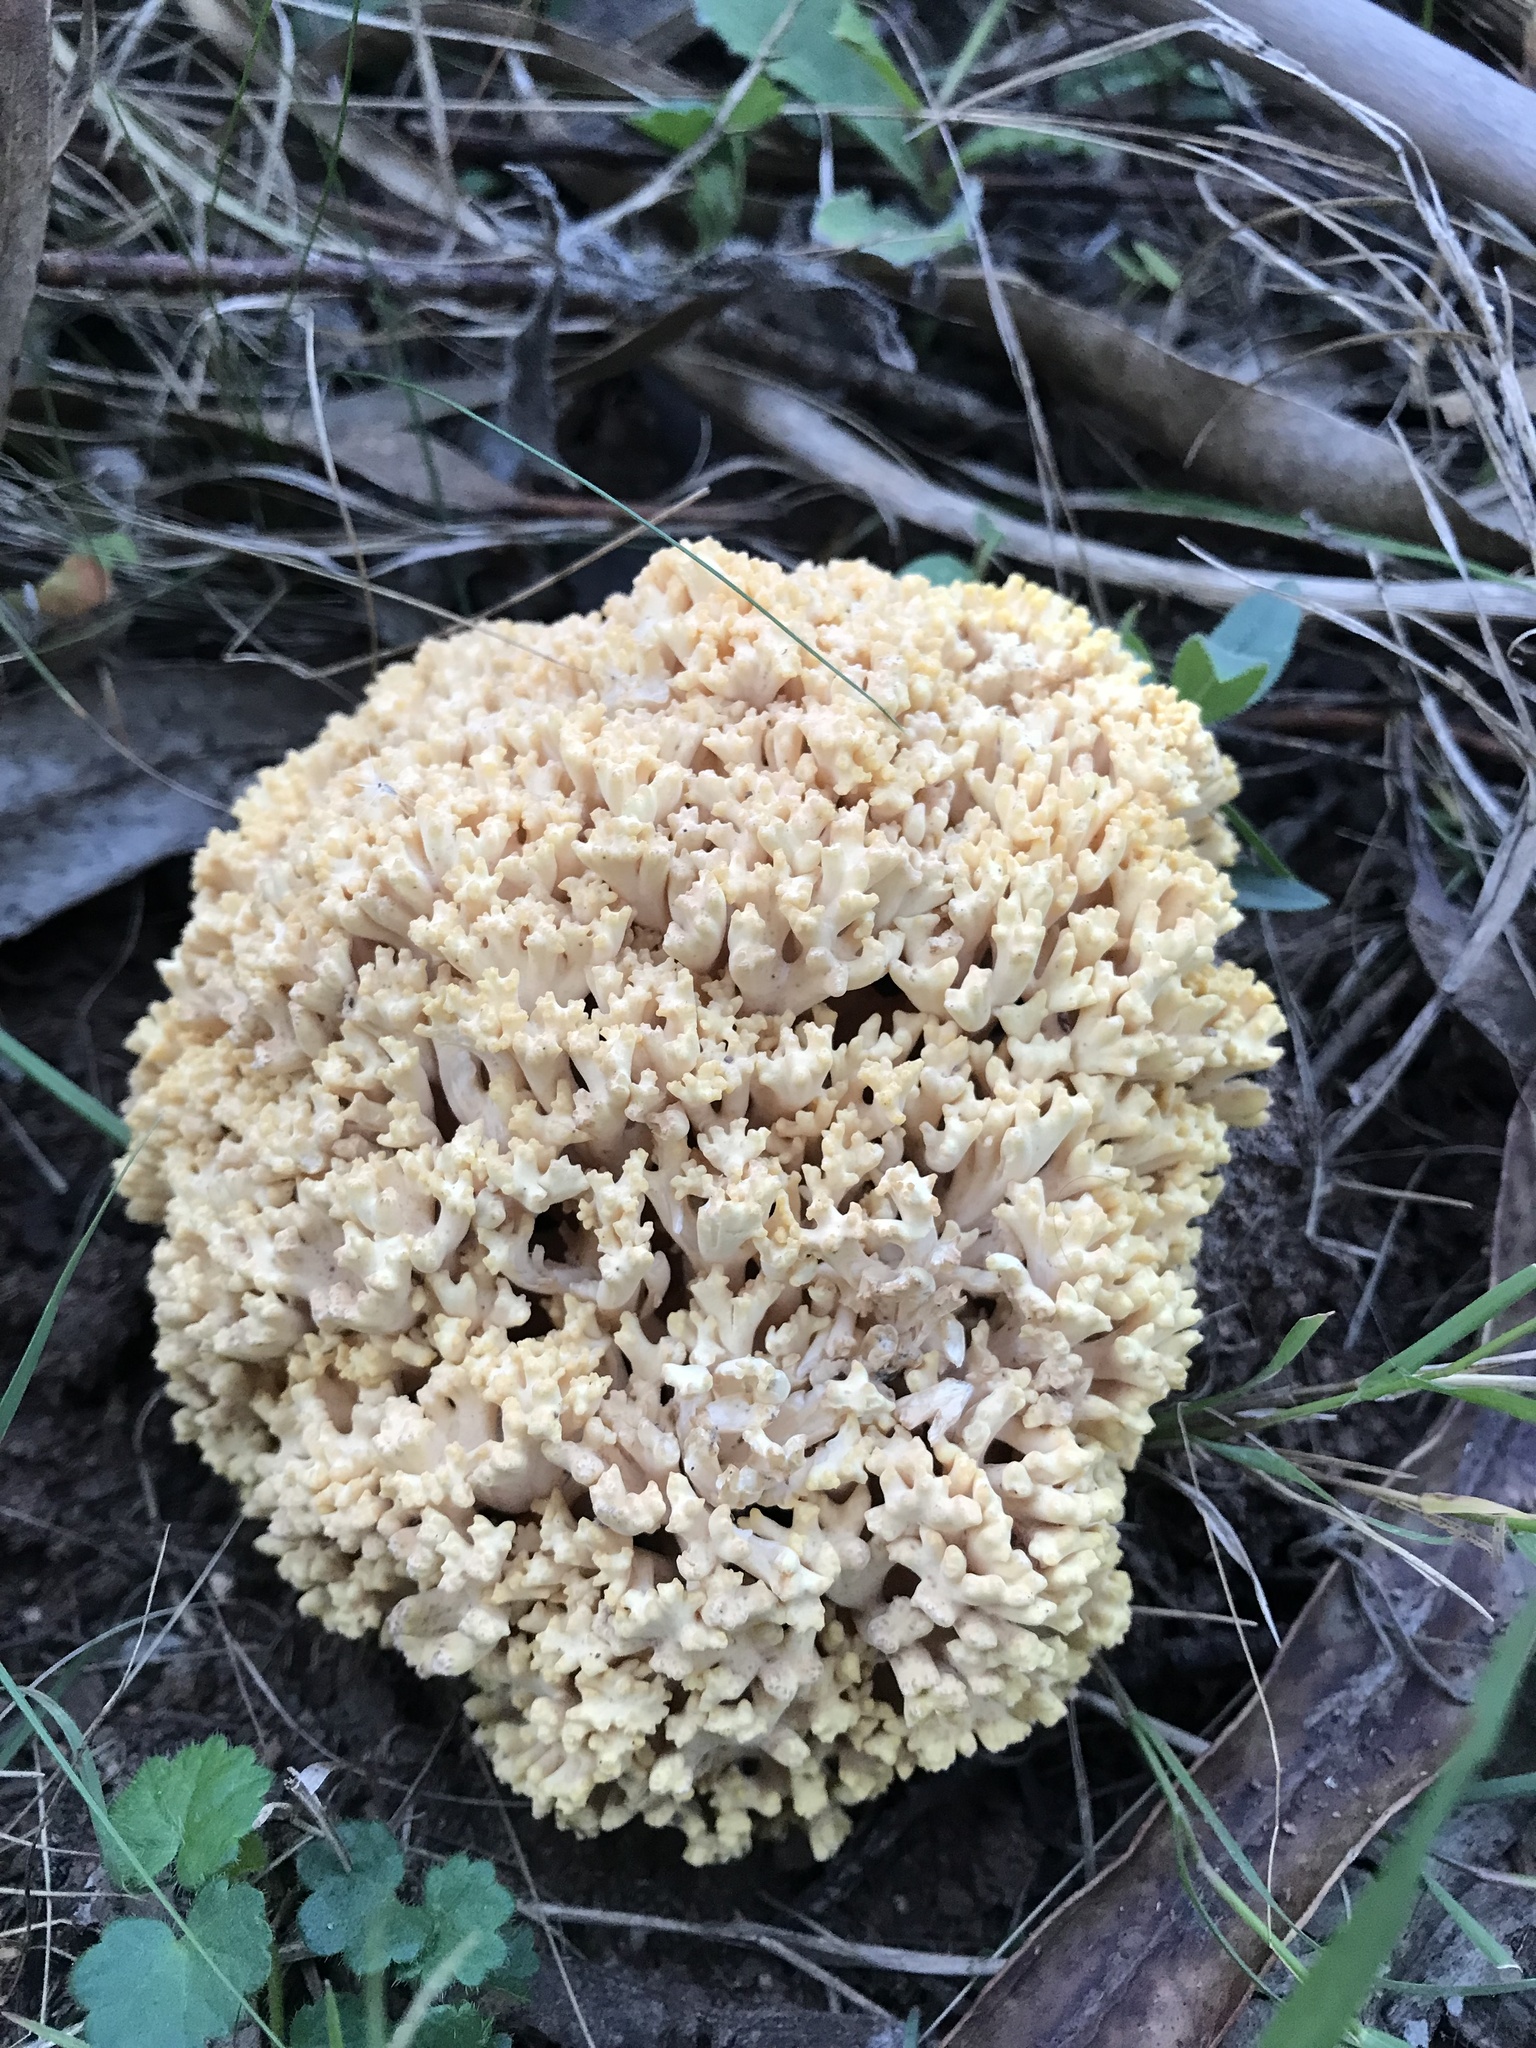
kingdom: Fungi
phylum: Basidiomycota
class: Agaricomycetes
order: Gomphales
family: Gomphaceae
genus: Ramaria
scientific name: Ramaria toxica
